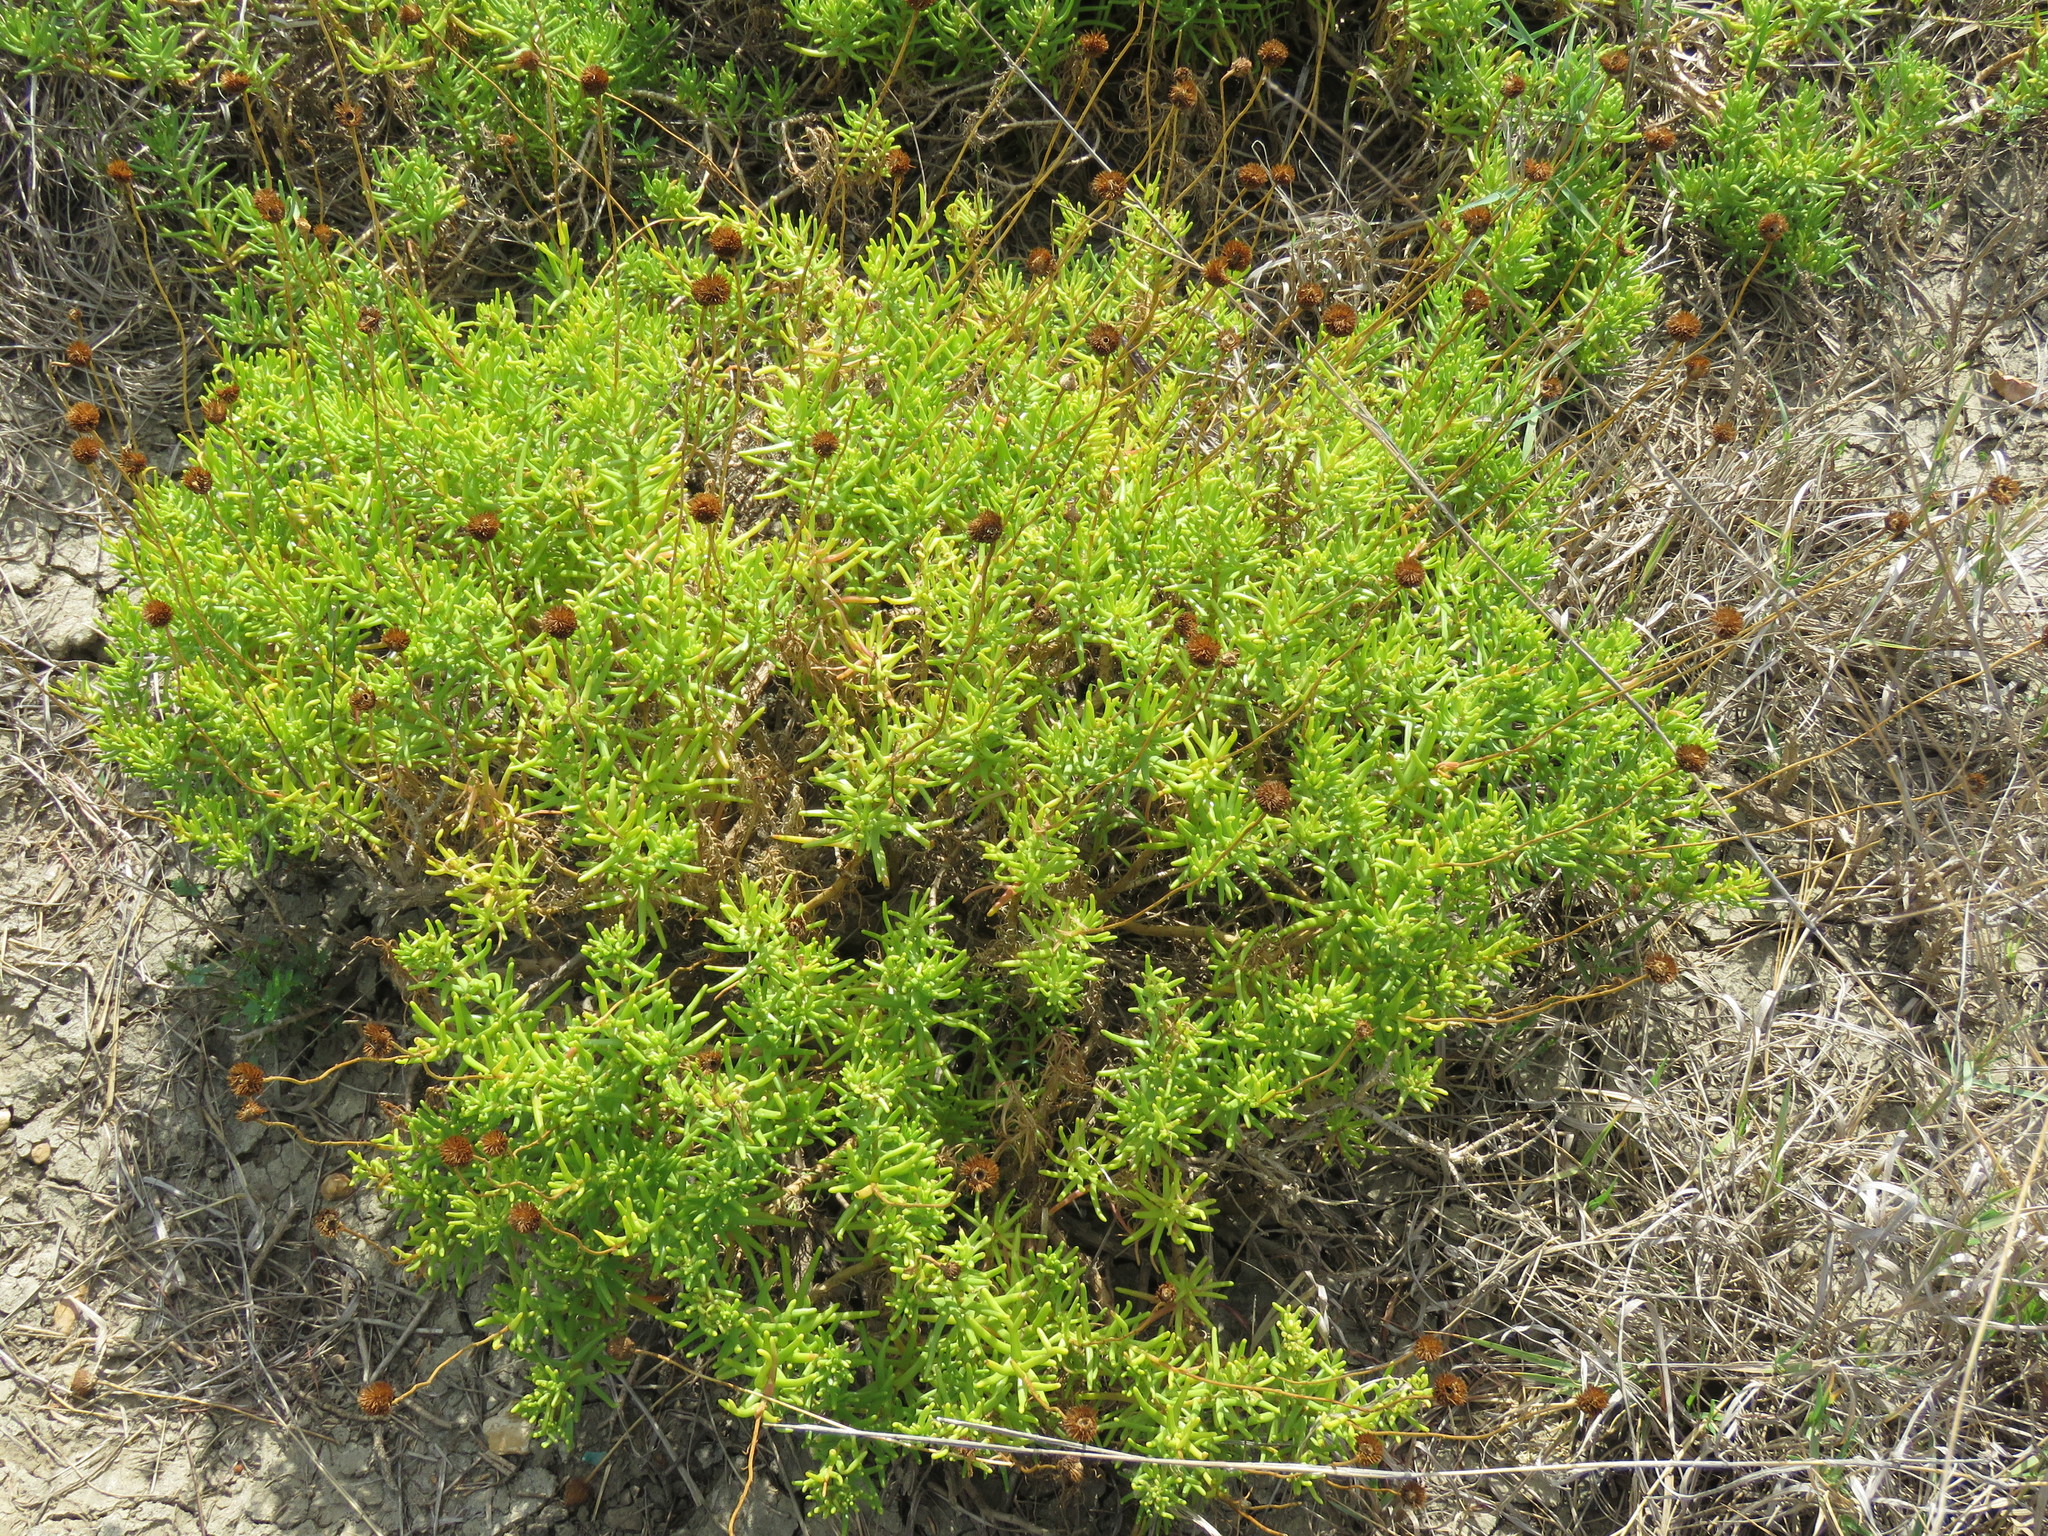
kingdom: Plantae
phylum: Tracheophyta
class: Magnoliopsida
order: Asterales
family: Asteraceae
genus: Varilla
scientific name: Varilla texana
